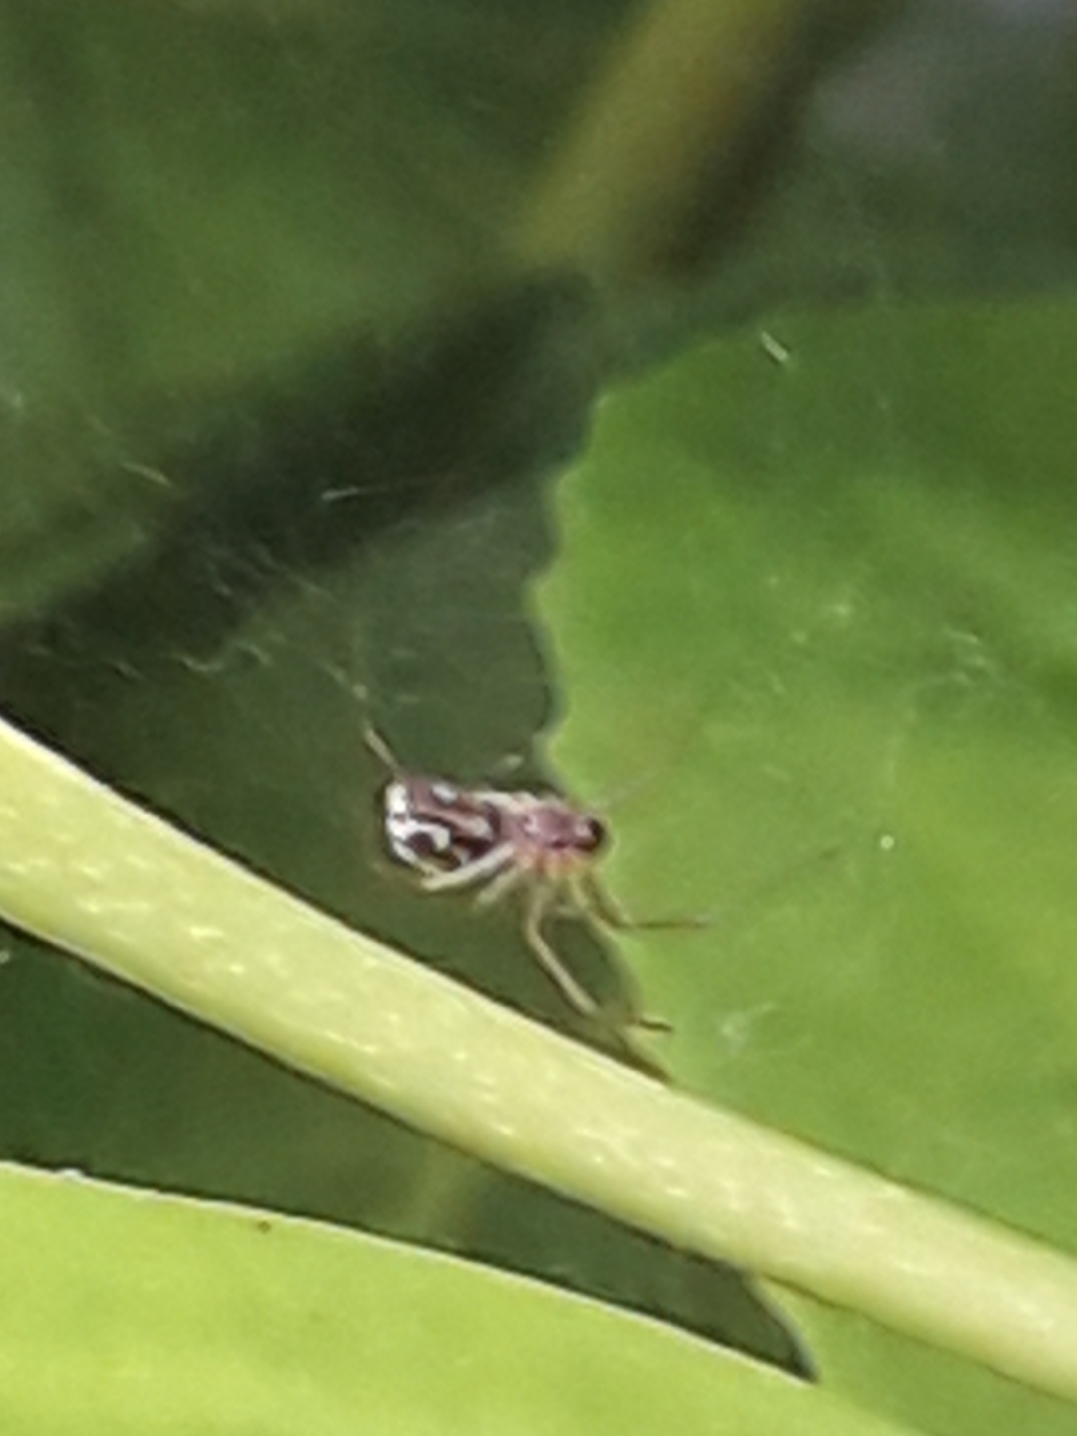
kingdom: Animalia
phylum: Arthropoda
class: Arachnida
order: Araneae
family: Linyphiidae
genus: Linyphia
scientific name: Linyphia triangularis
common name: Money spider
